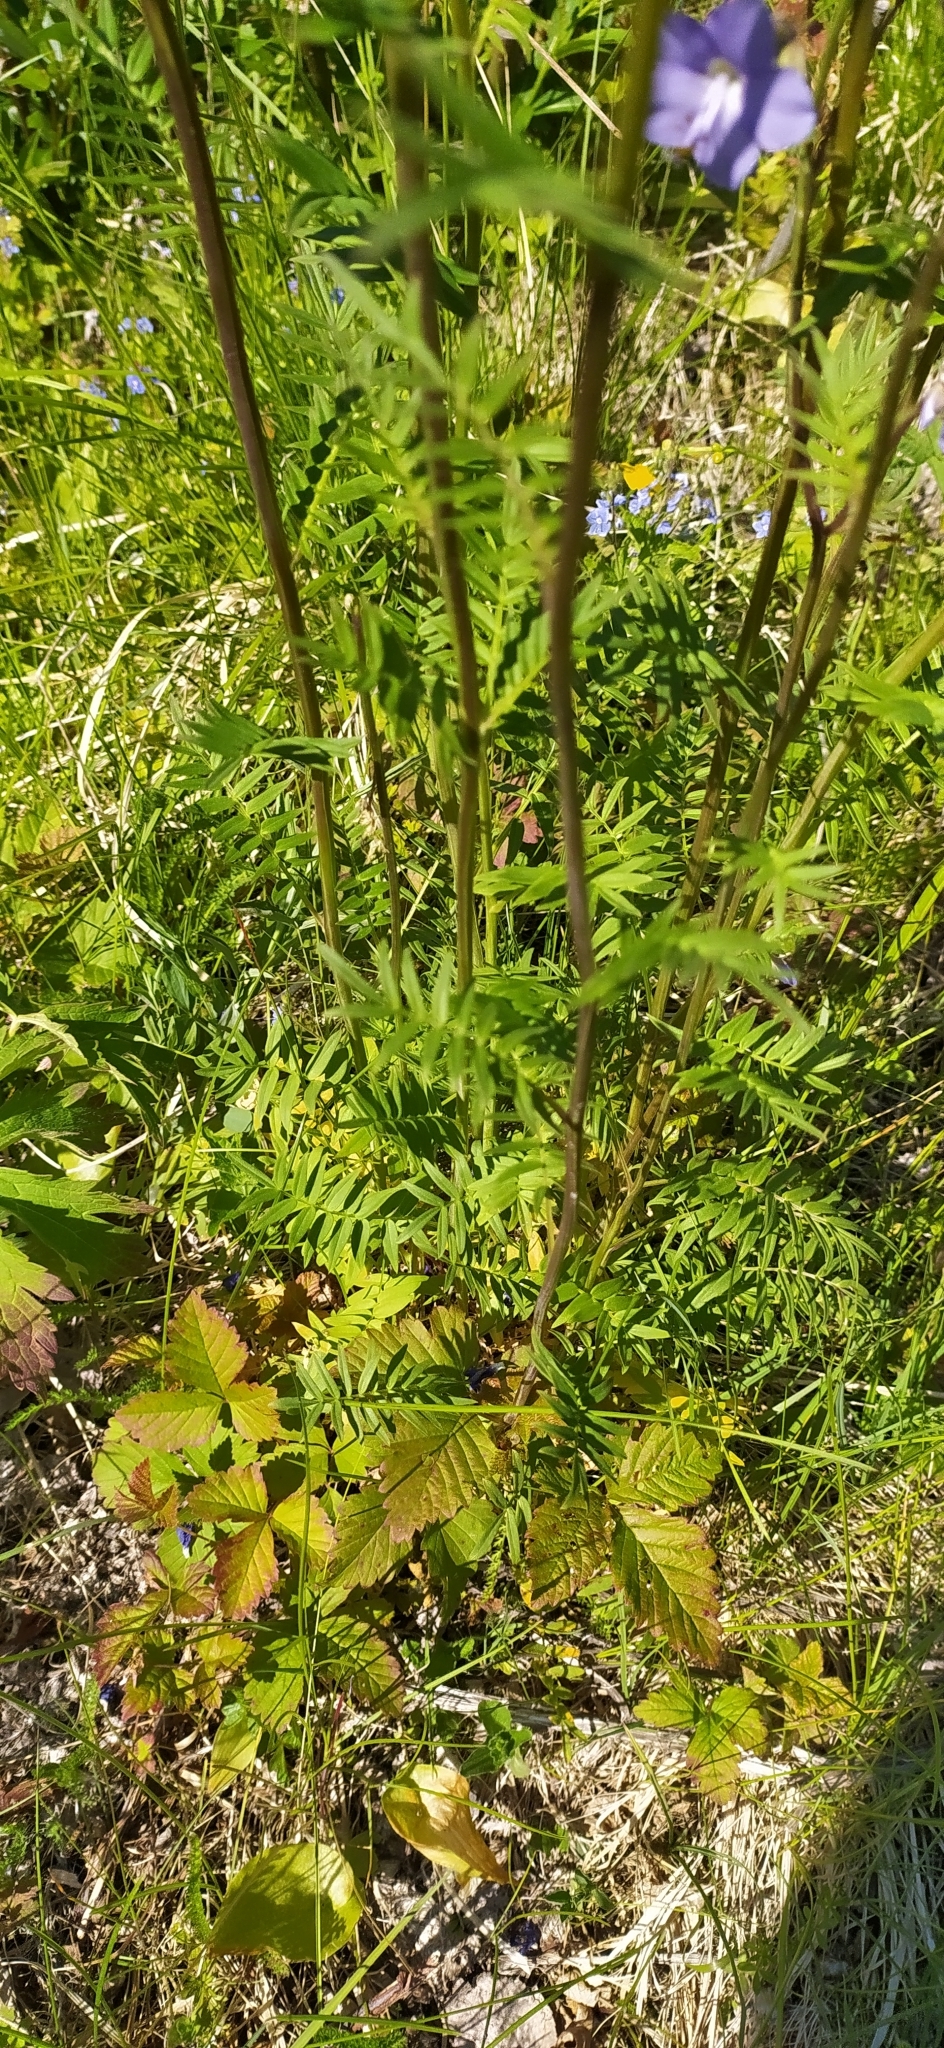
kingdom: Plantae
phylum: Tracheophyta
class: Magnoliopsida
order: Ericales
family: Polemoniaceae
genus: Polemonium
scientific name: Polemonium caeruleum
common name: Jacob's-ladder
